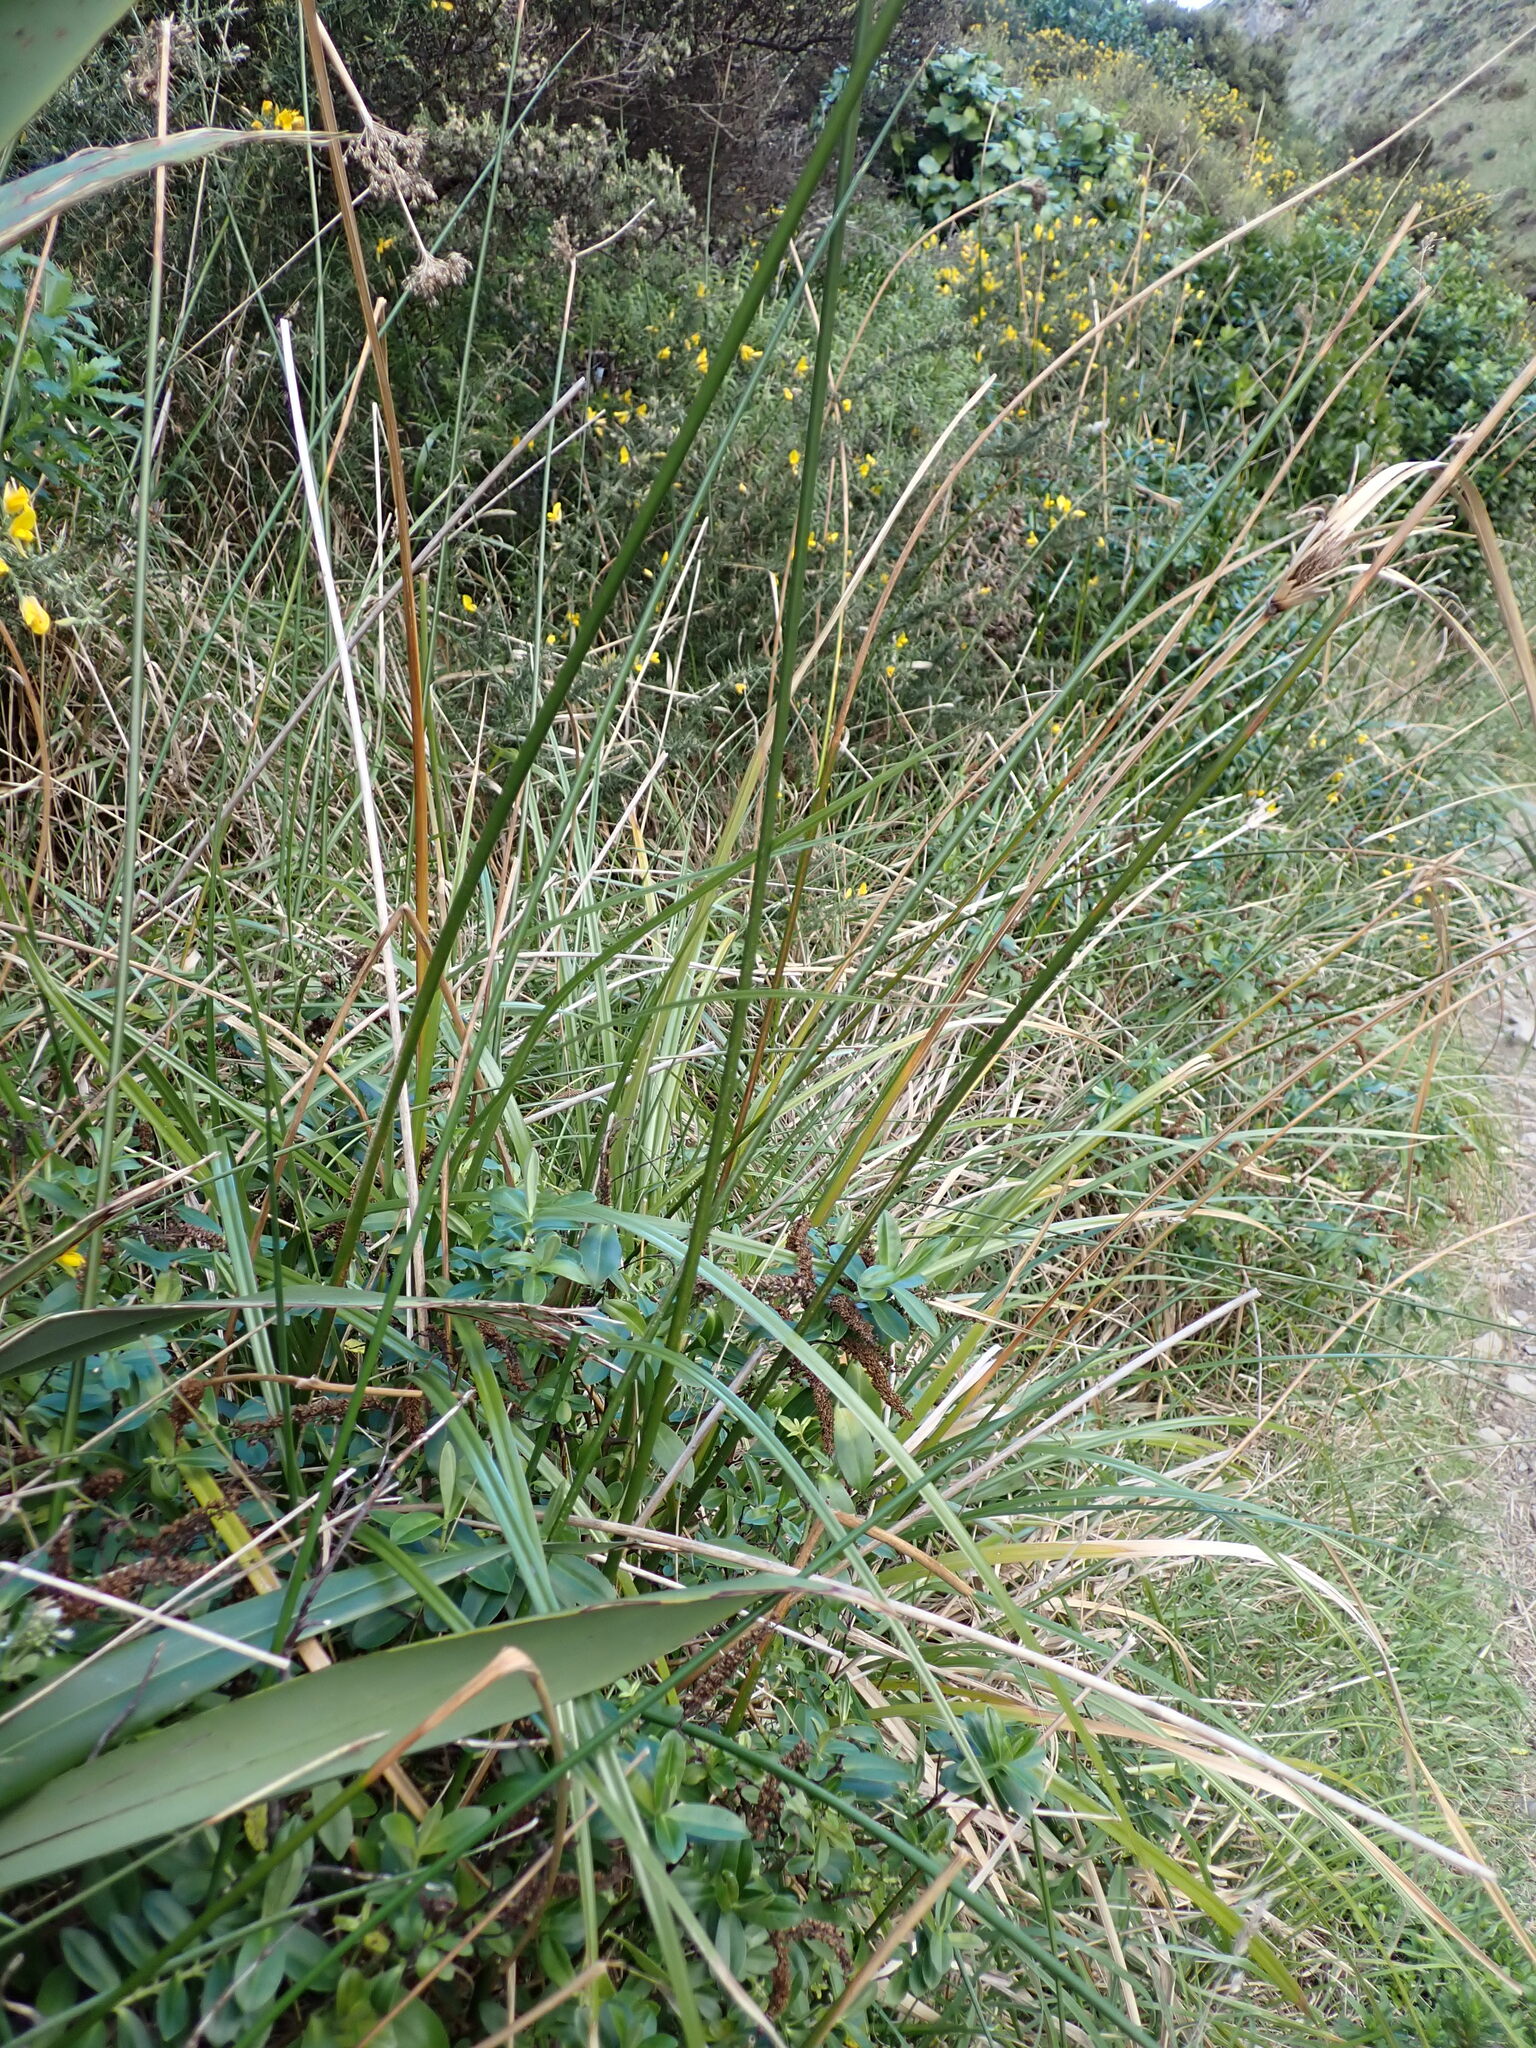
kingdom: Plantae
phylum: Tracheophyta
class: Liliopsida
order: Poales
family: Juncaceae
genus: Juncus
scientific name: Juncus pallidus
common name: Great soft-rush
